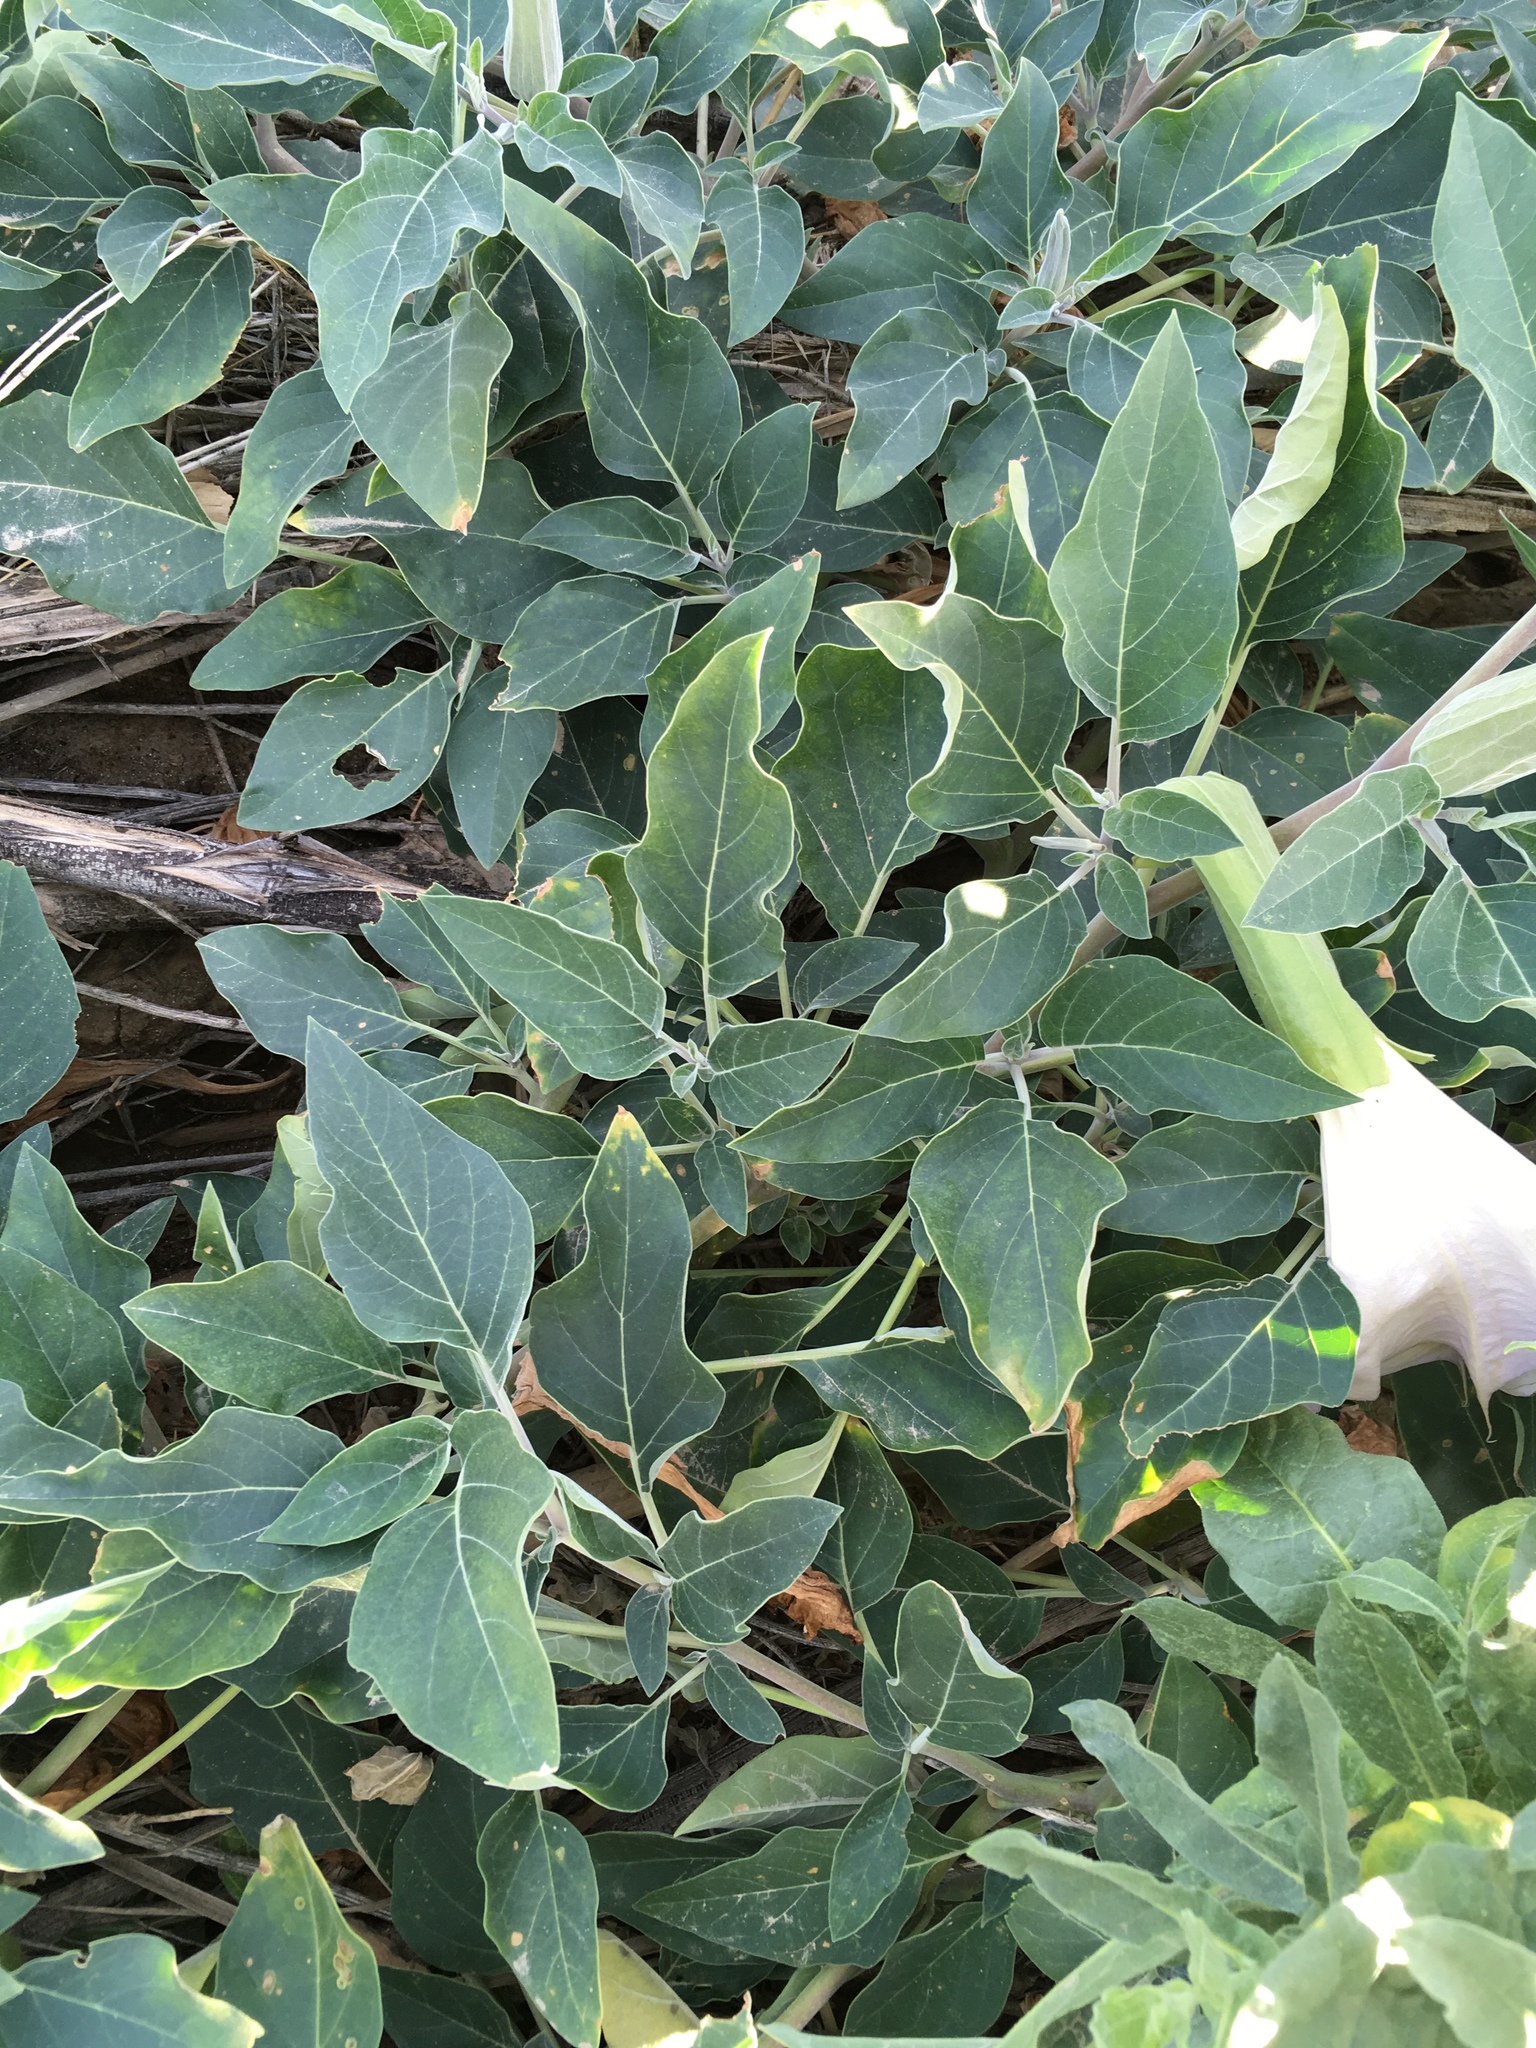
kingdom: Plantae
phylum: Tracheophyta
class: Magnoliopsida
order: Solanales
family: Solanaceae
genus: Datura
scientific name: Datura wrightii
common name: Sacred thorn-apple
